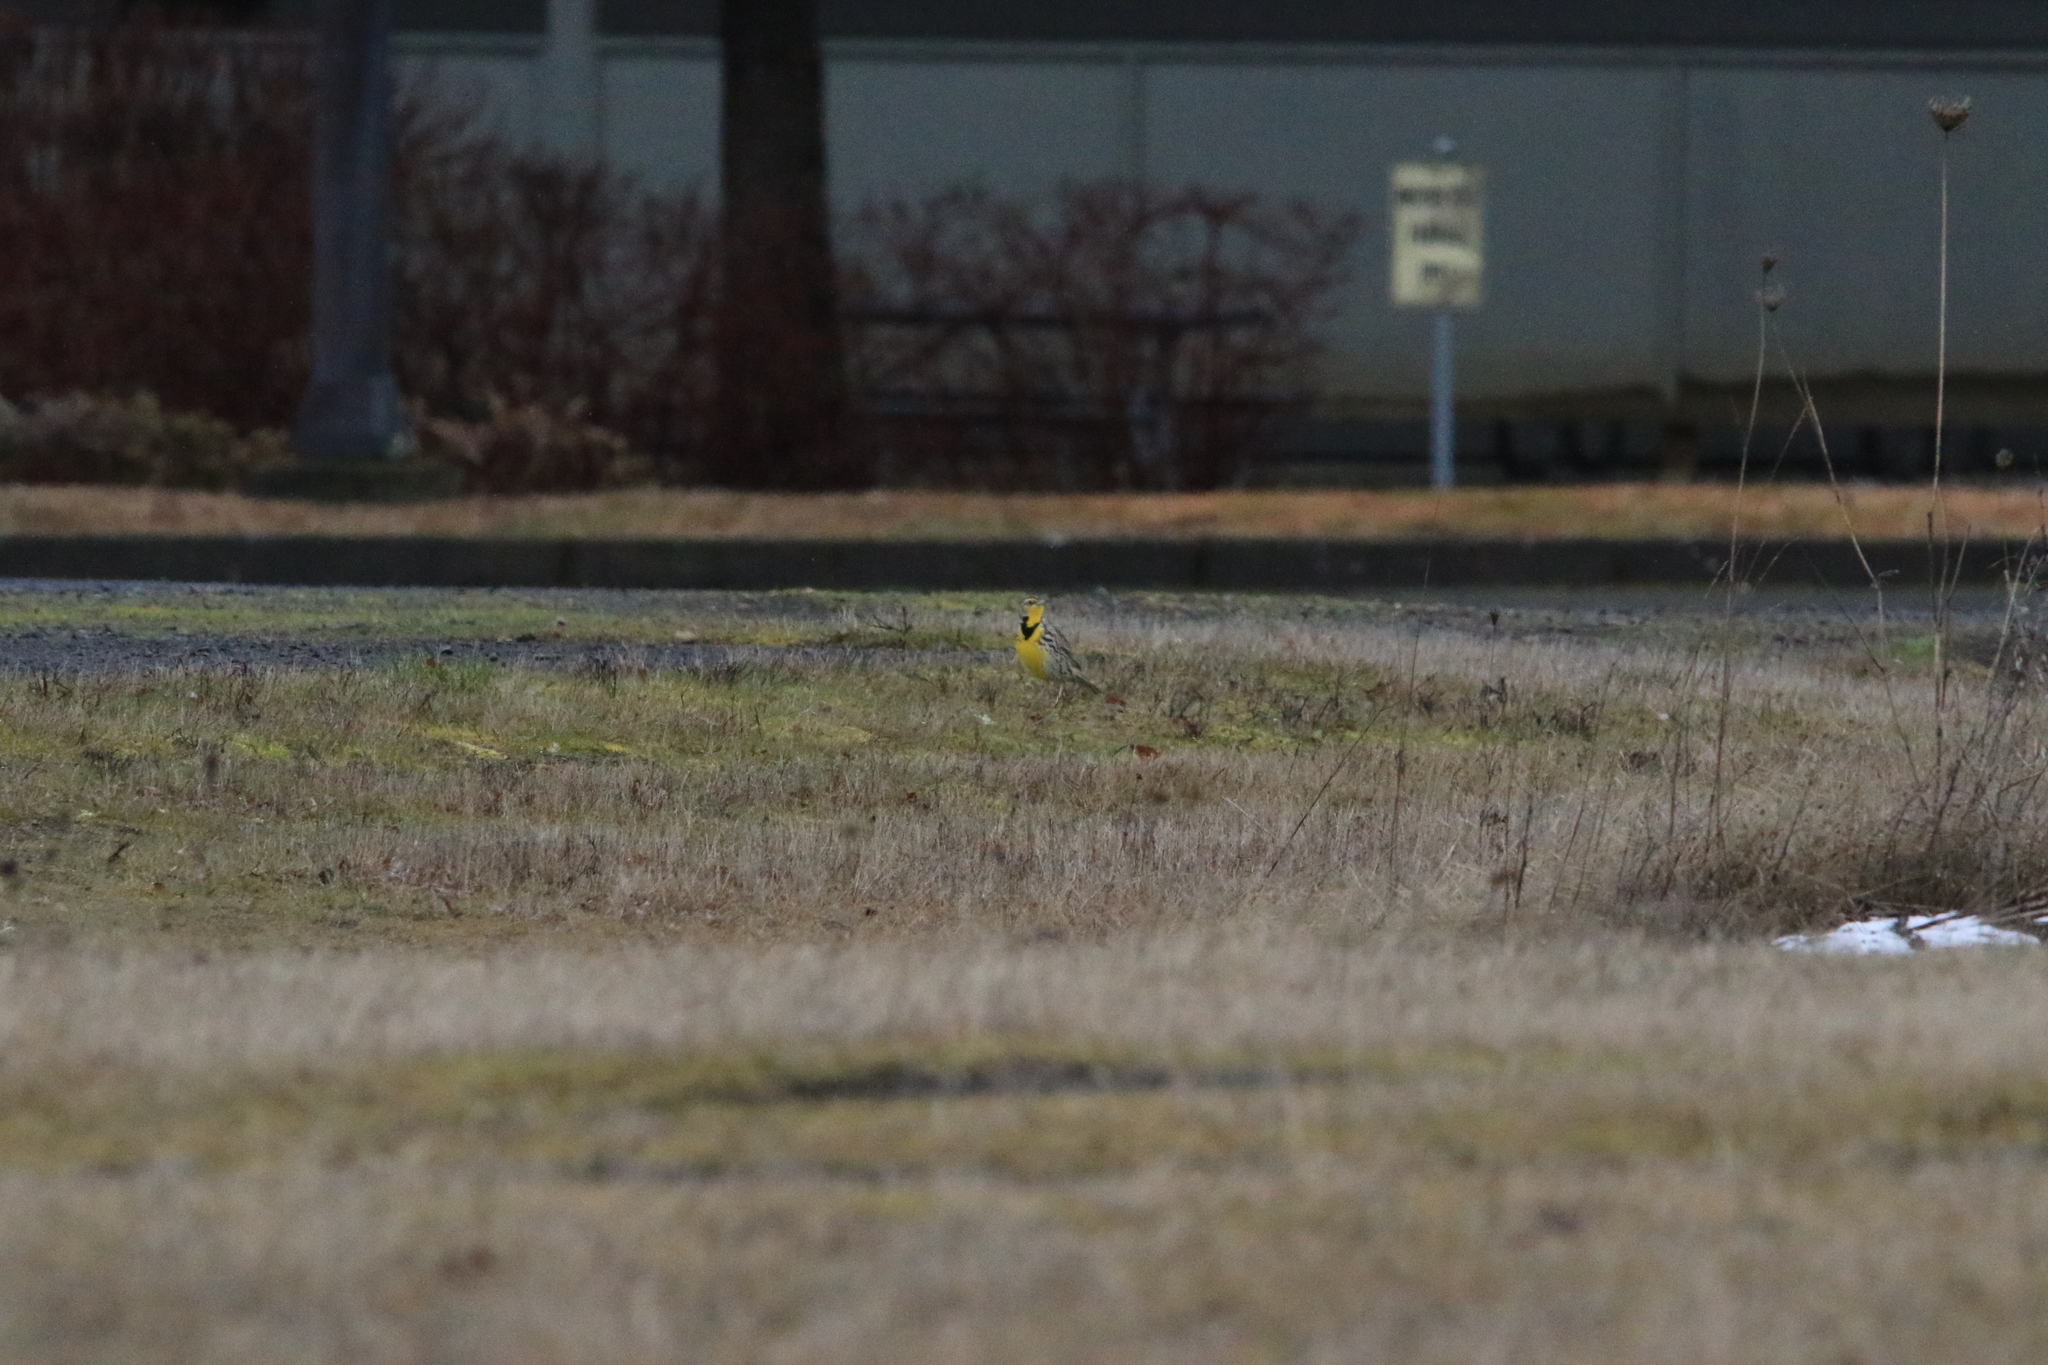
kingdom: Animalia
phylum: Chordata
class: Aves
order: Passeriformes
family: Icteridae
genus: Sturnella
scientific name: Sturnella neglecta
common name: Western meadowlark
